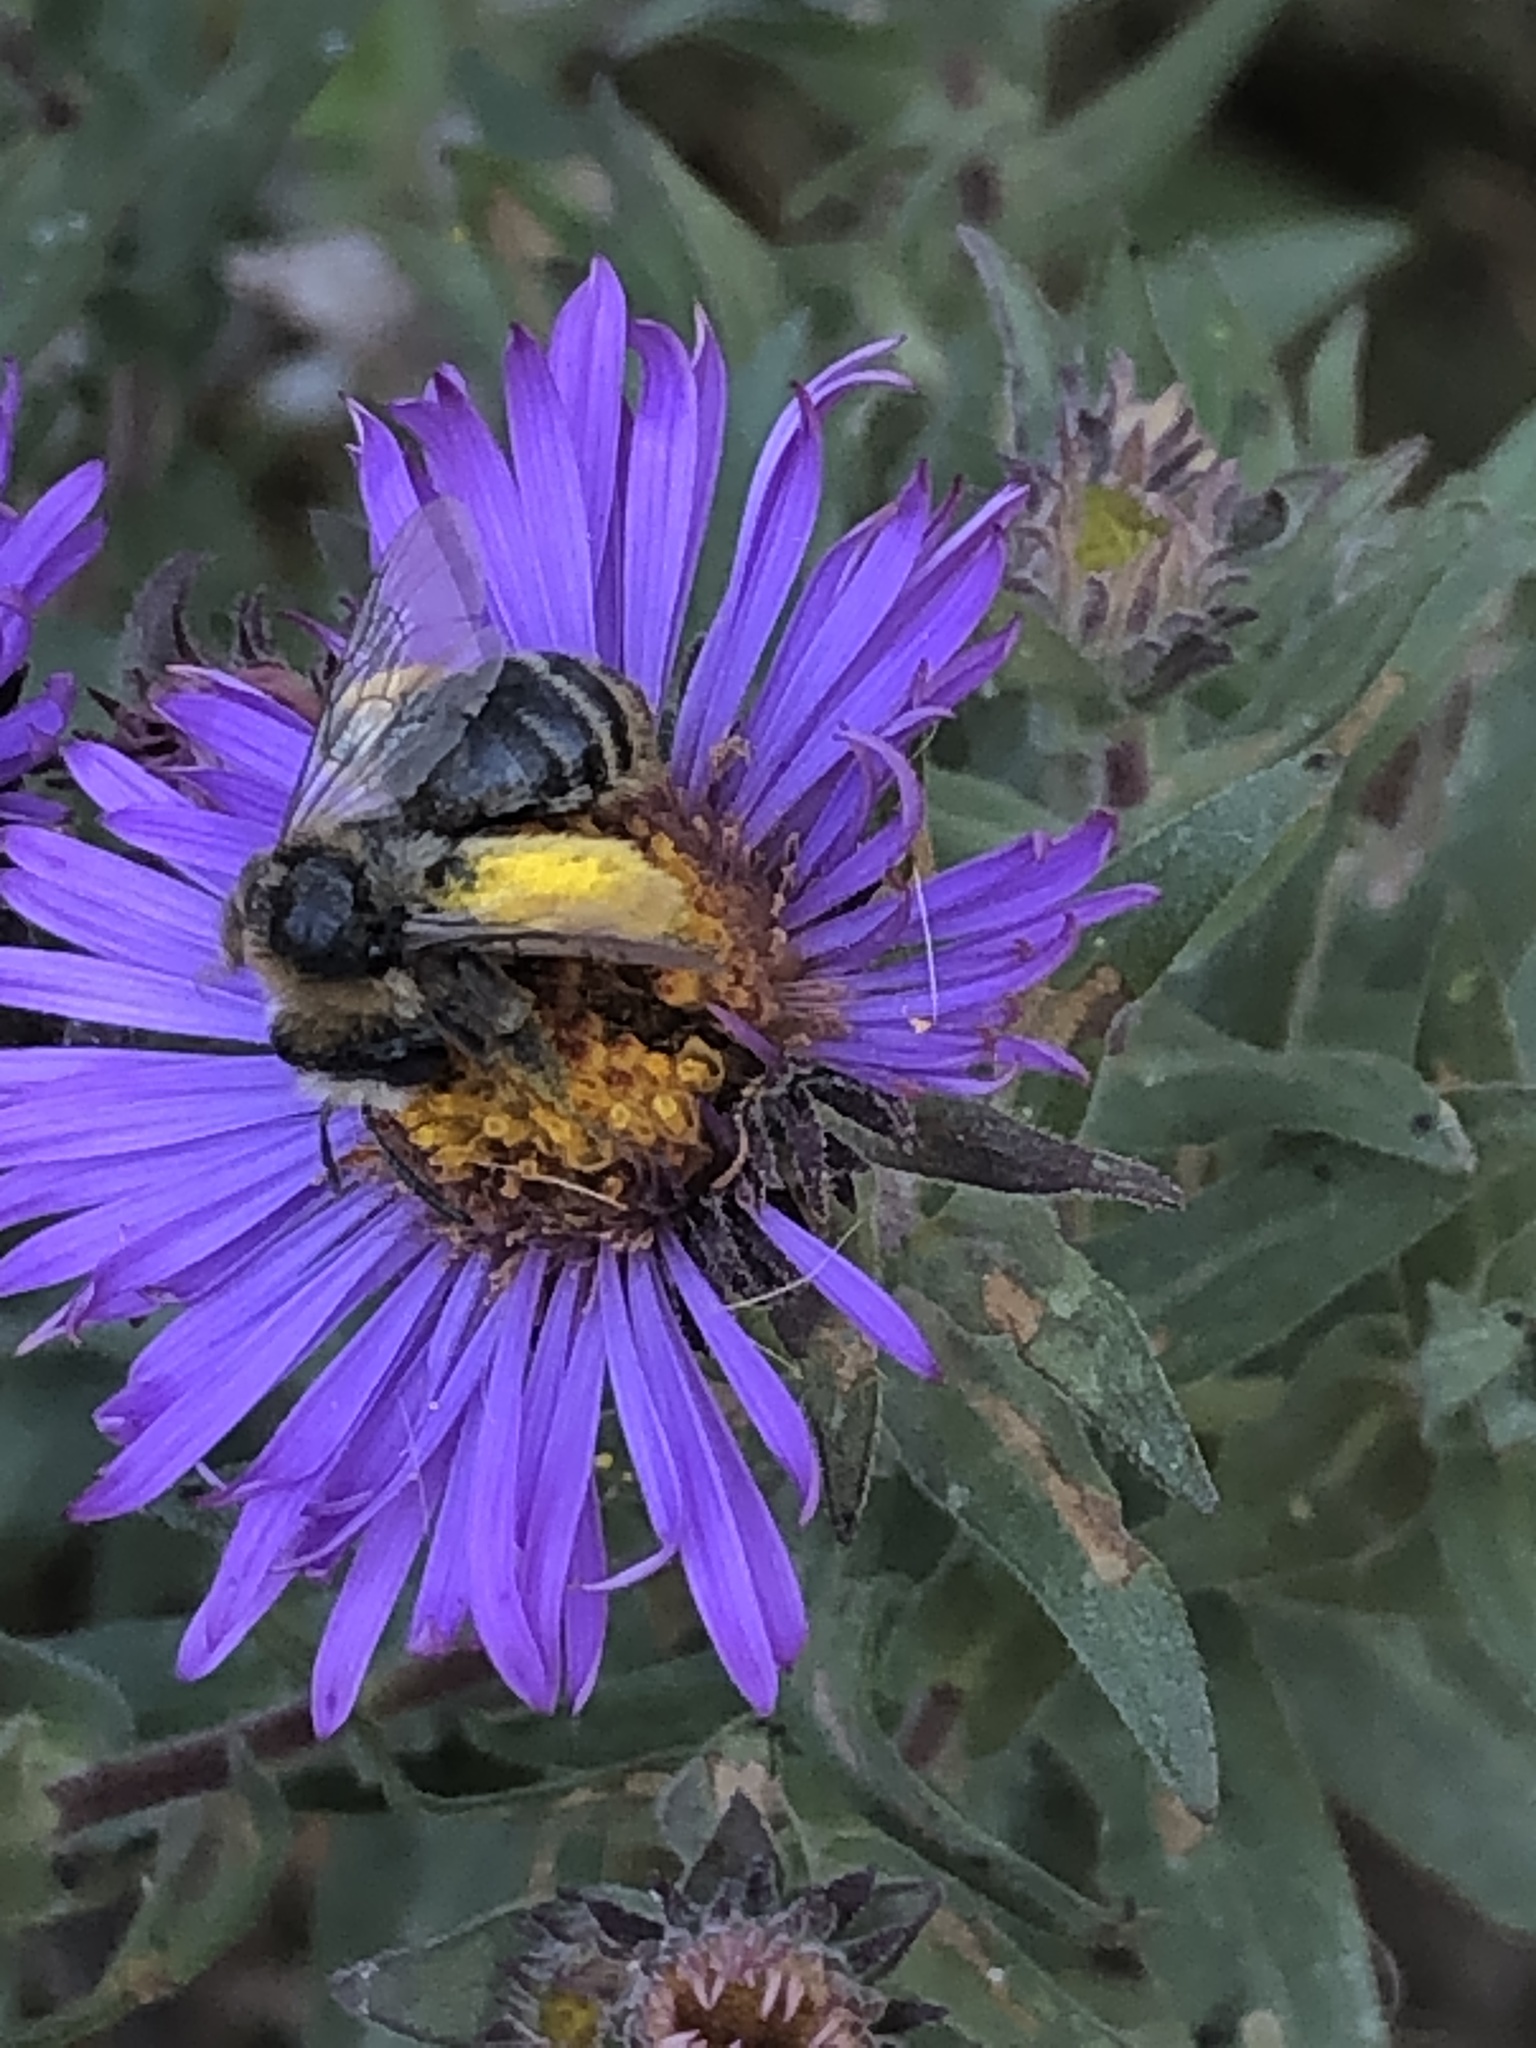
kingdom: Animalia
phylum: Arthropoda
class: Insecta
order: Hymenoptera
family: Apidae
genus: Melissodes
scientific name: Melissodes druriellus
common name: Drury's long-horned bee
